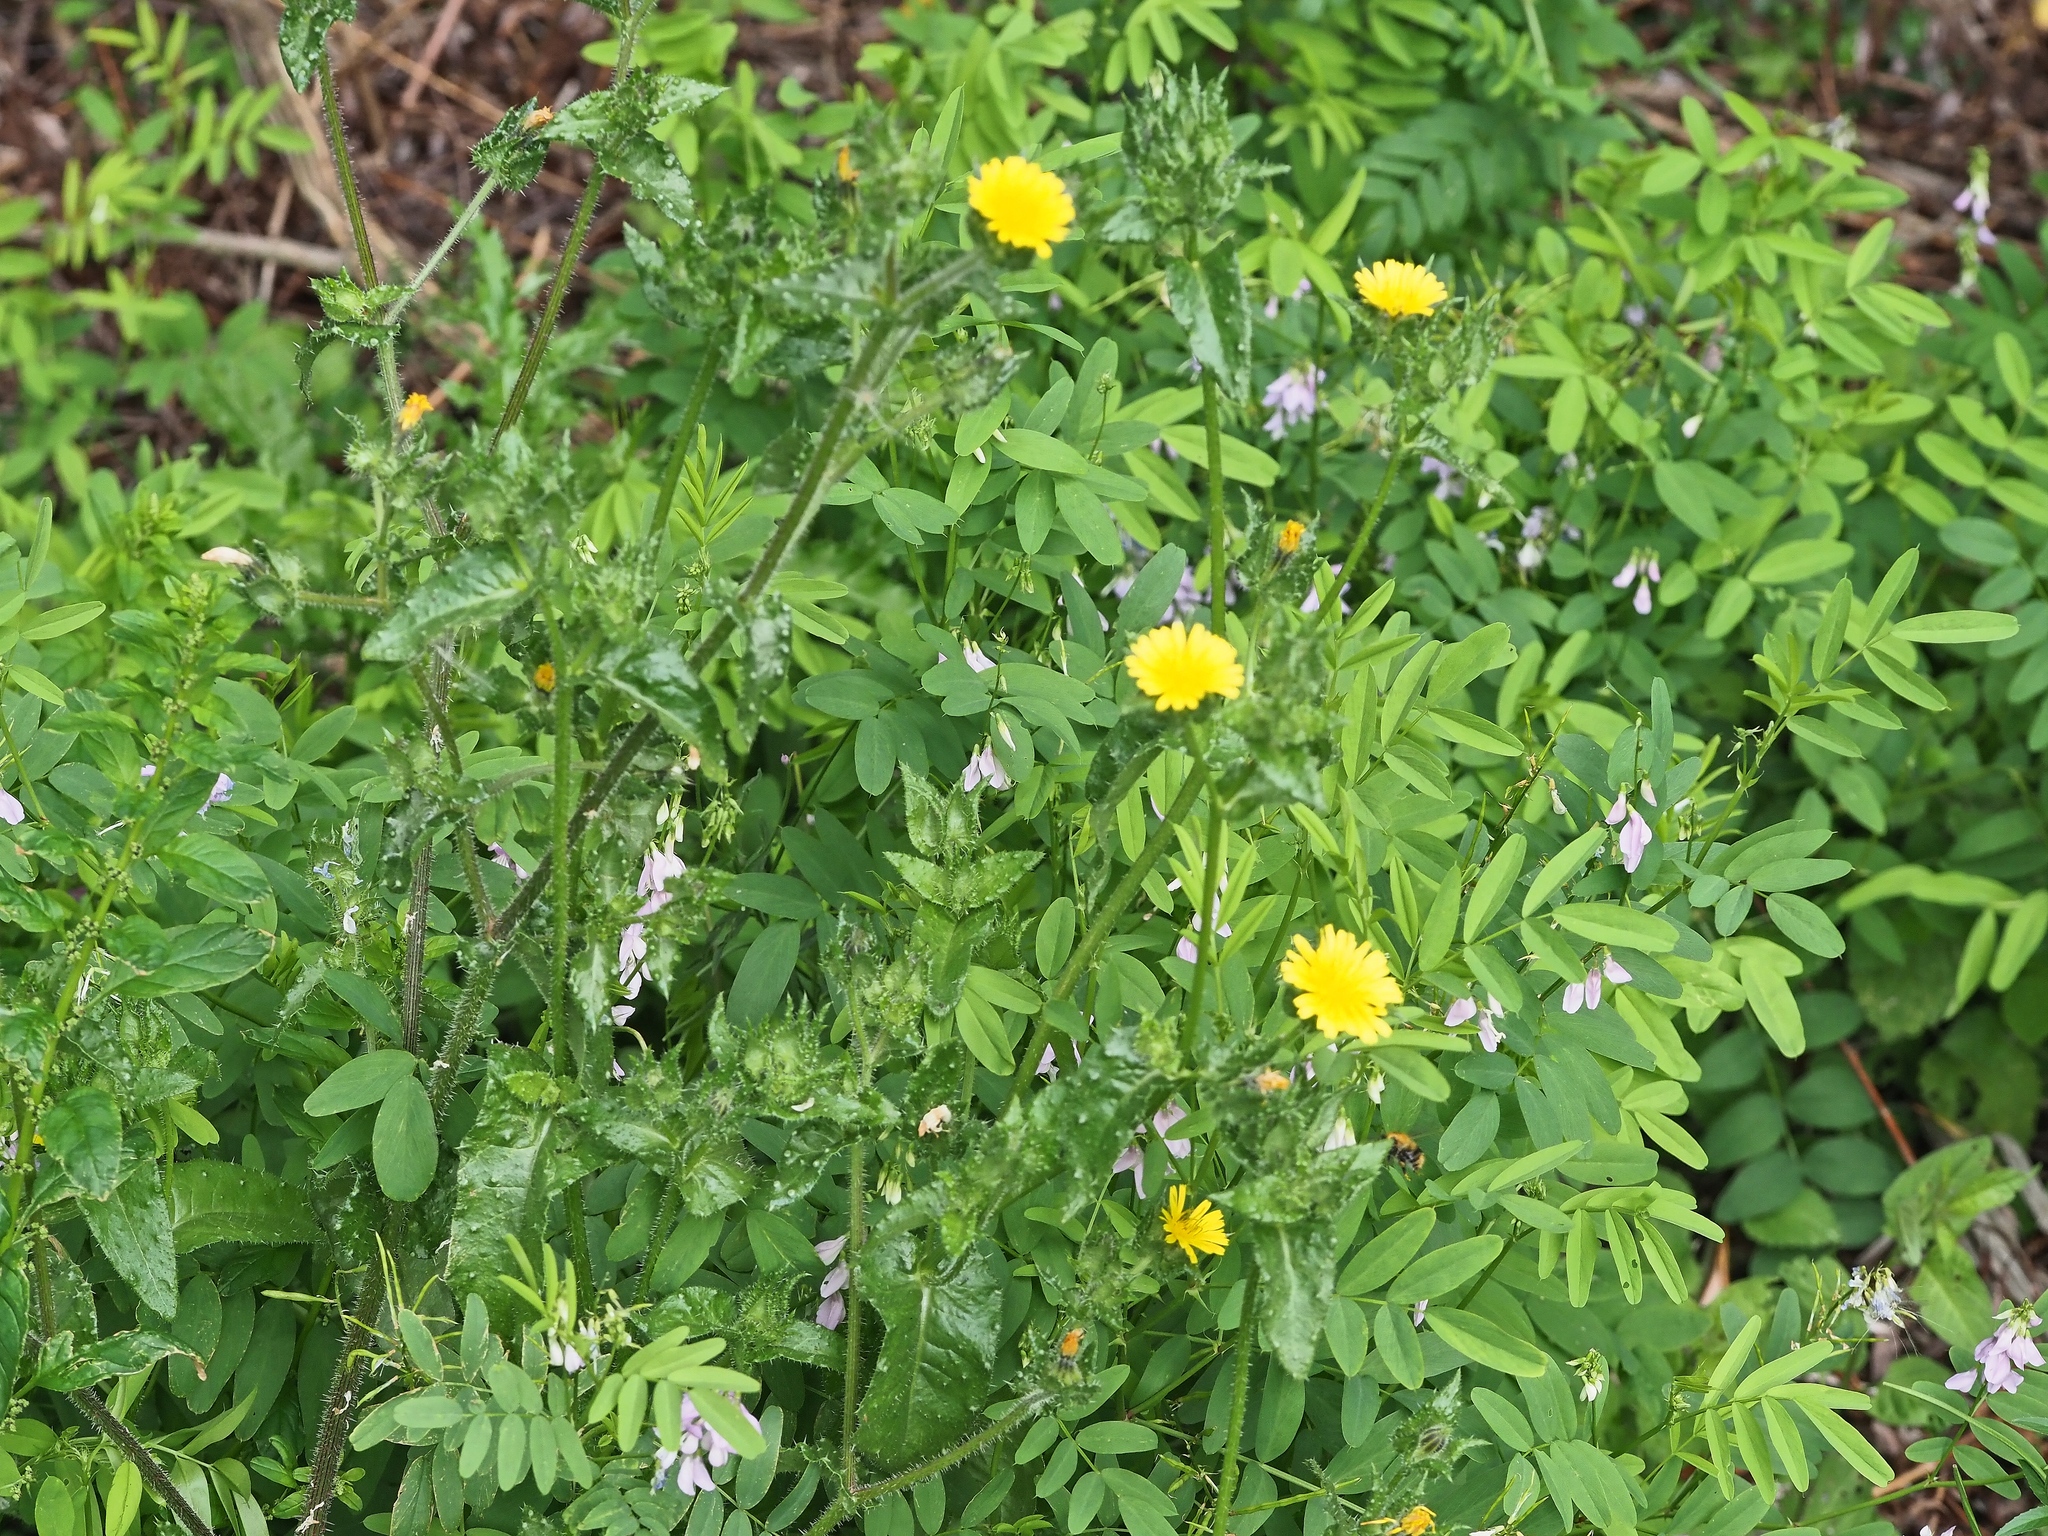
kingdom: Plantae
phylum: Tracheophyta
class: Magnoliopsida
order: Asterales
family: Asteraceae
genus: Helminthotheca
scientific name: Helminthotheca echioides
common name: Ox-tongue
